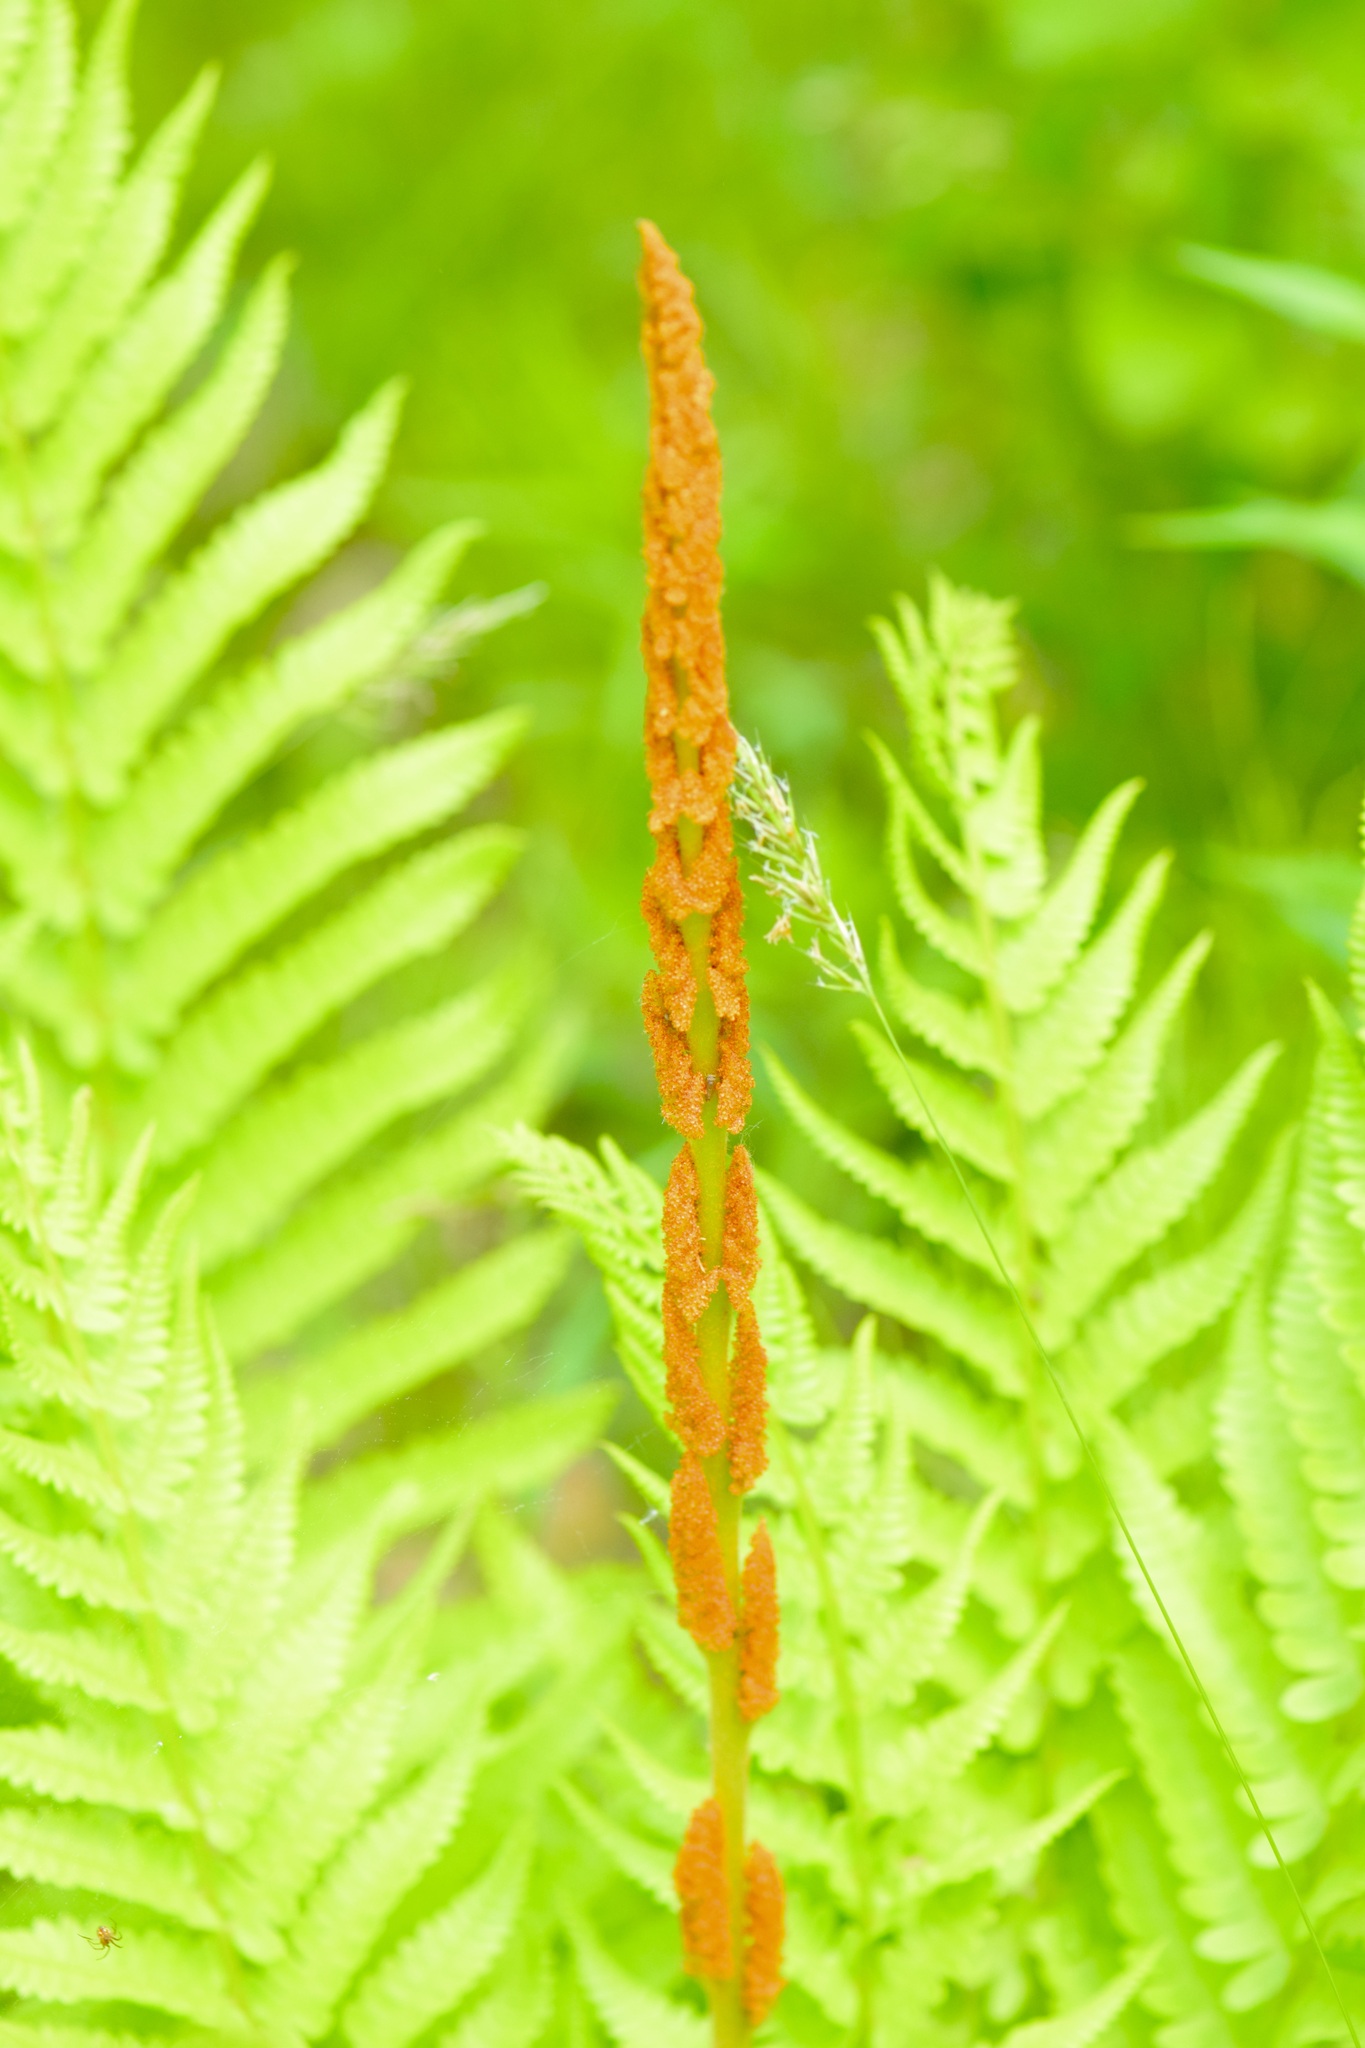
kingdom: Plantae
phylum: Tracheophyta
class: Polypodiopsida
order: Osmundales
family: Osmundaceae
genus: Osmundastrum
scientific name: Osmundastrum cinnamomeum
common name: Cinnamon fern
